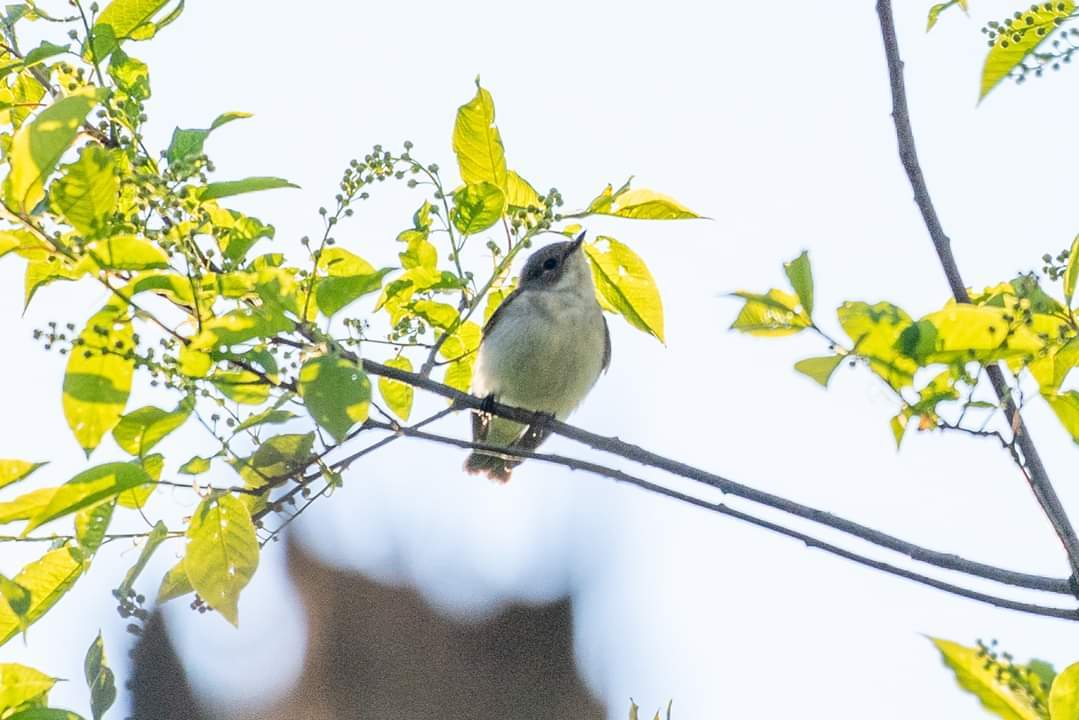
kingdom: Animalia
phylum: Chordata
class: Aves
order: Passeriformes
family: Muscicapidae
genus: Ficedula
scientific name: Ficedula hypoleuca
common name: European pied flycatcher
